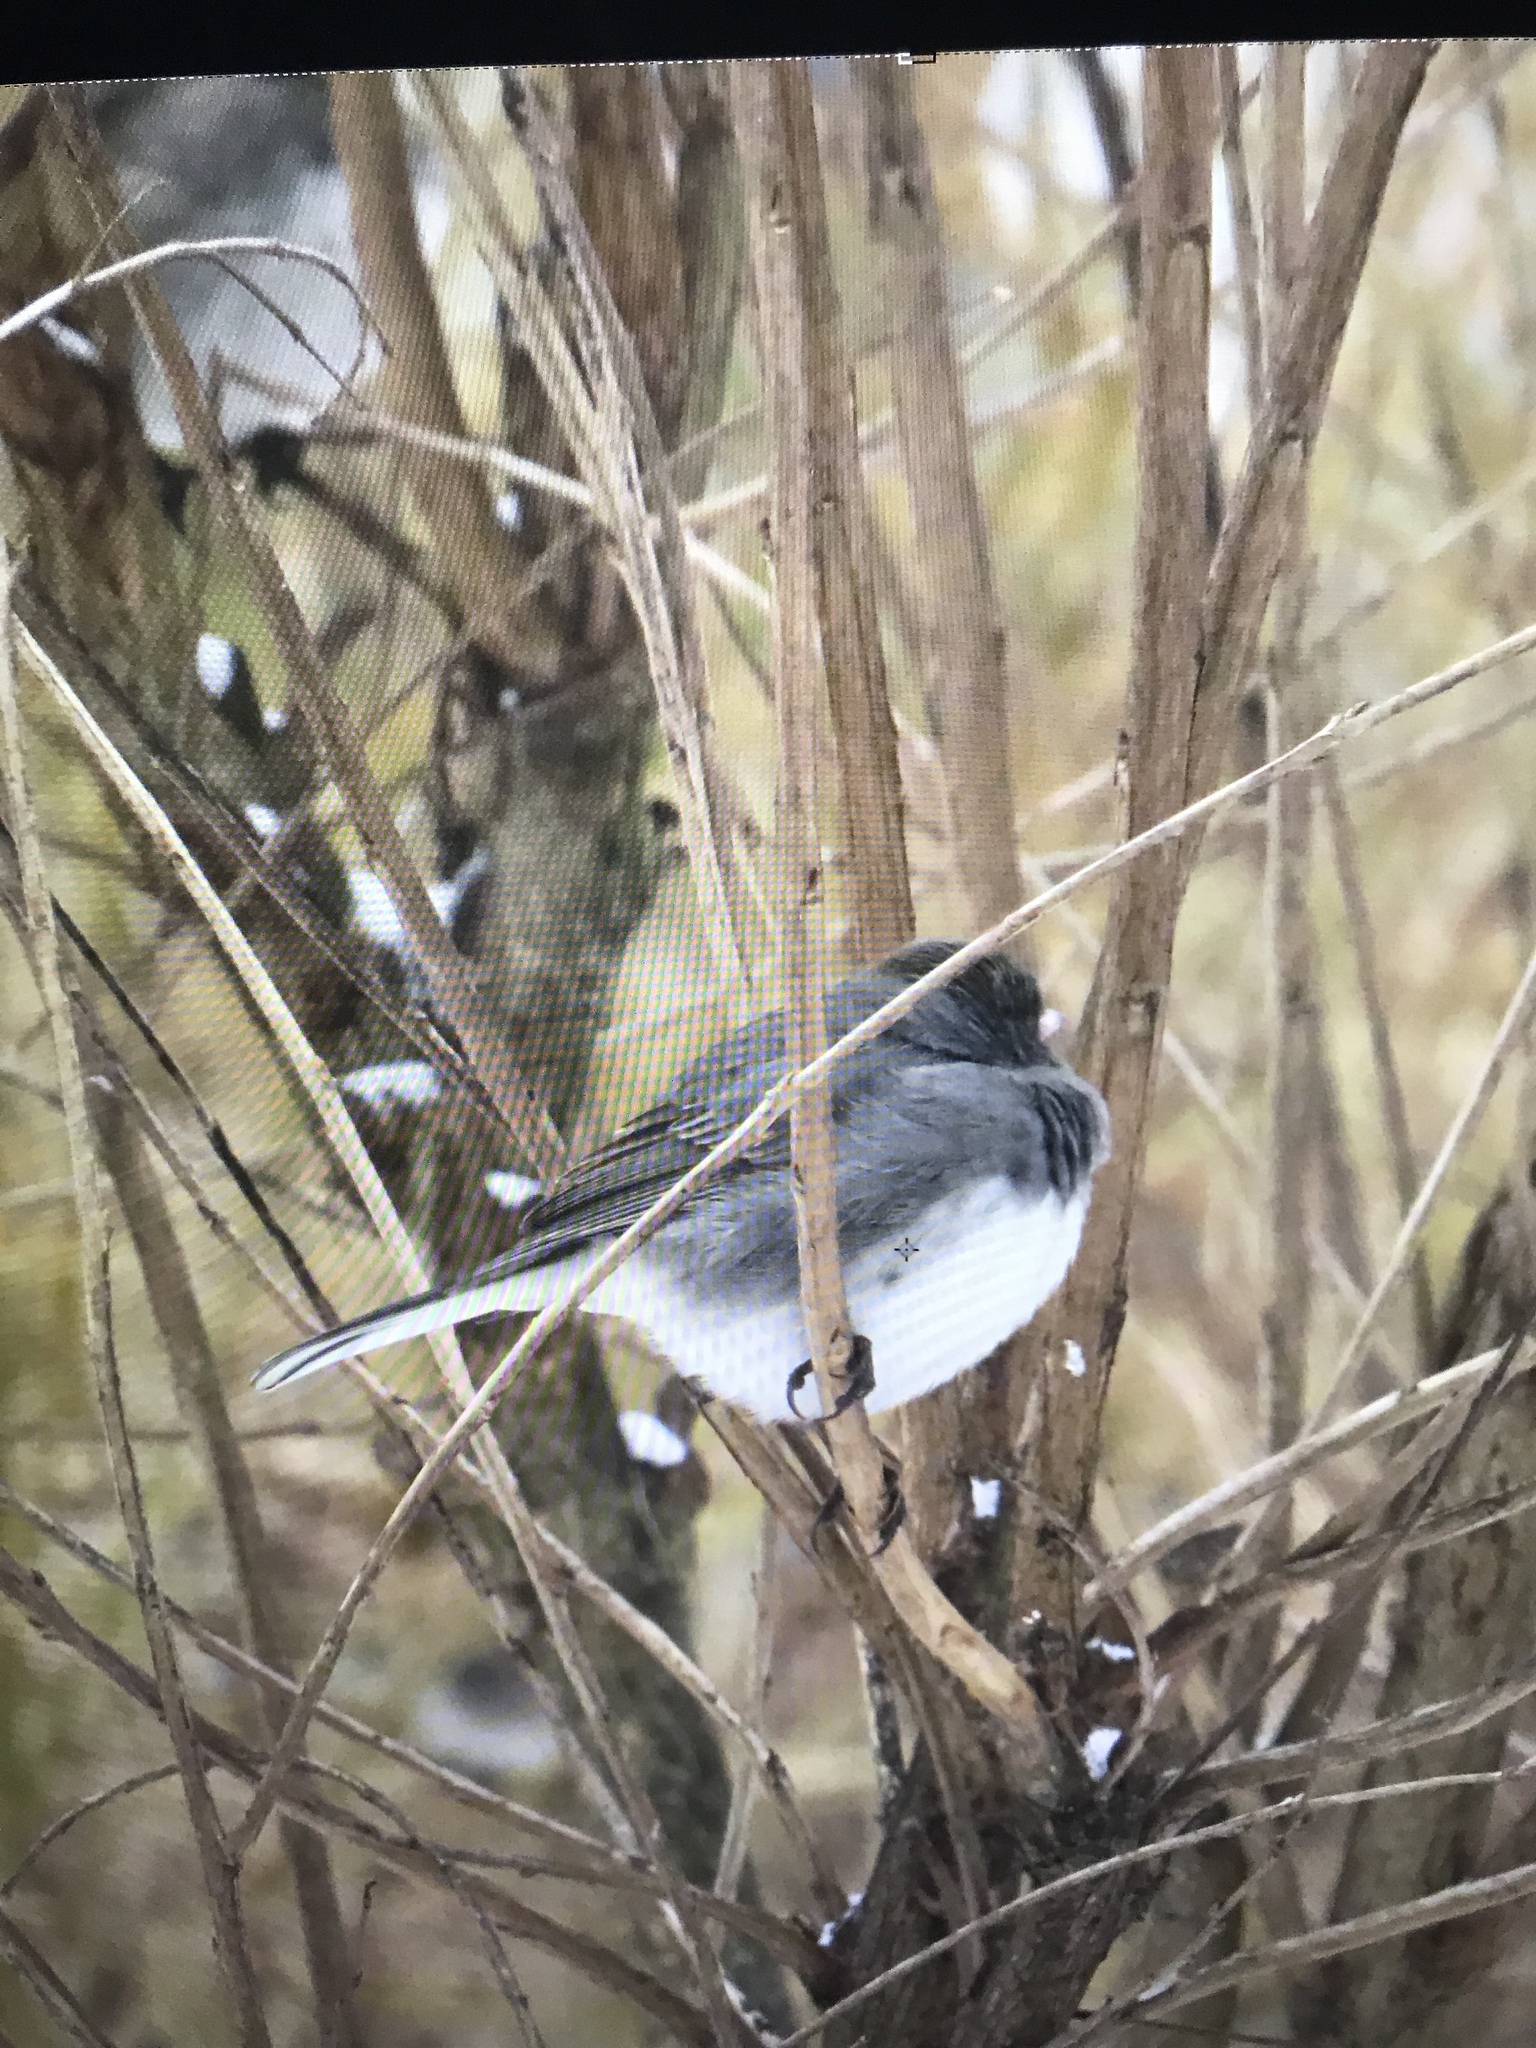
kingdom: Animalia
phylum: Chordata
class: Aves
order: Passeriformes
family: Passerellidae
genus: Junco
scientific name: Junco hyemalis
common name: Dark-eyed junco
